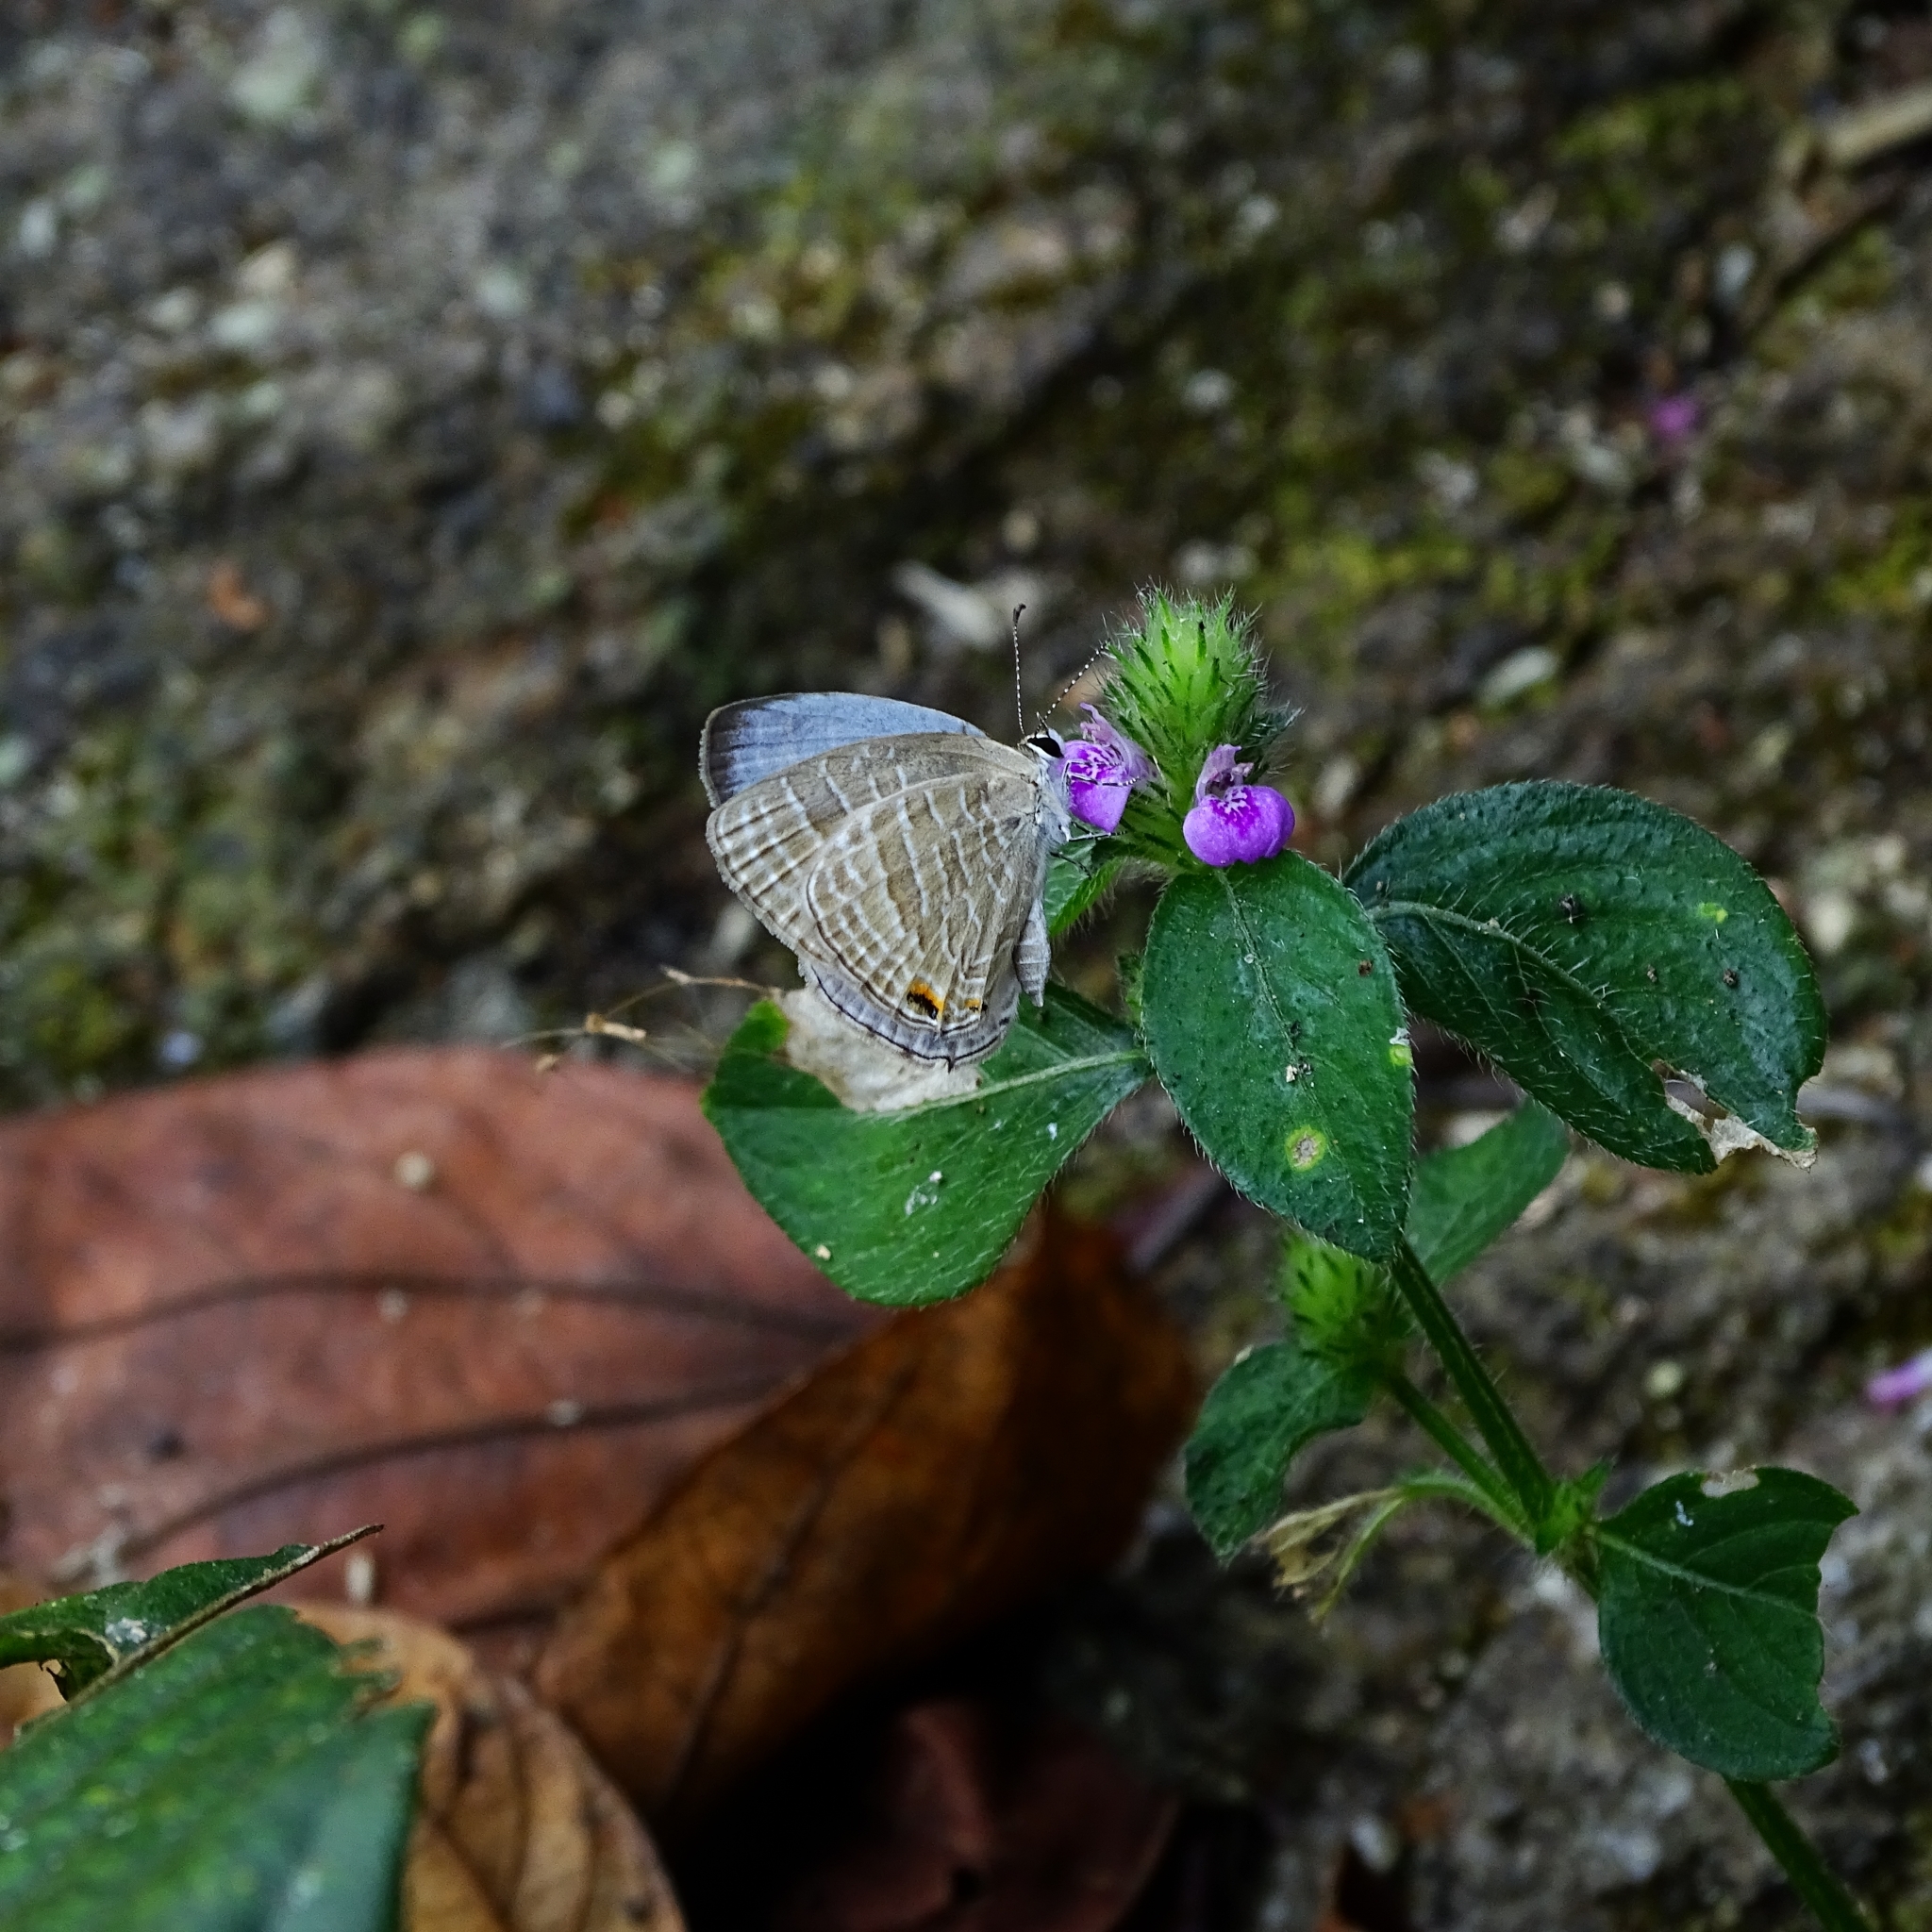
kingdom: Animalia
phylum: Arthropoda
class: Insecta
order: Lepidoptera
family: Lycaenidae
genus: Jamides
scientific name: Jamides celeno
